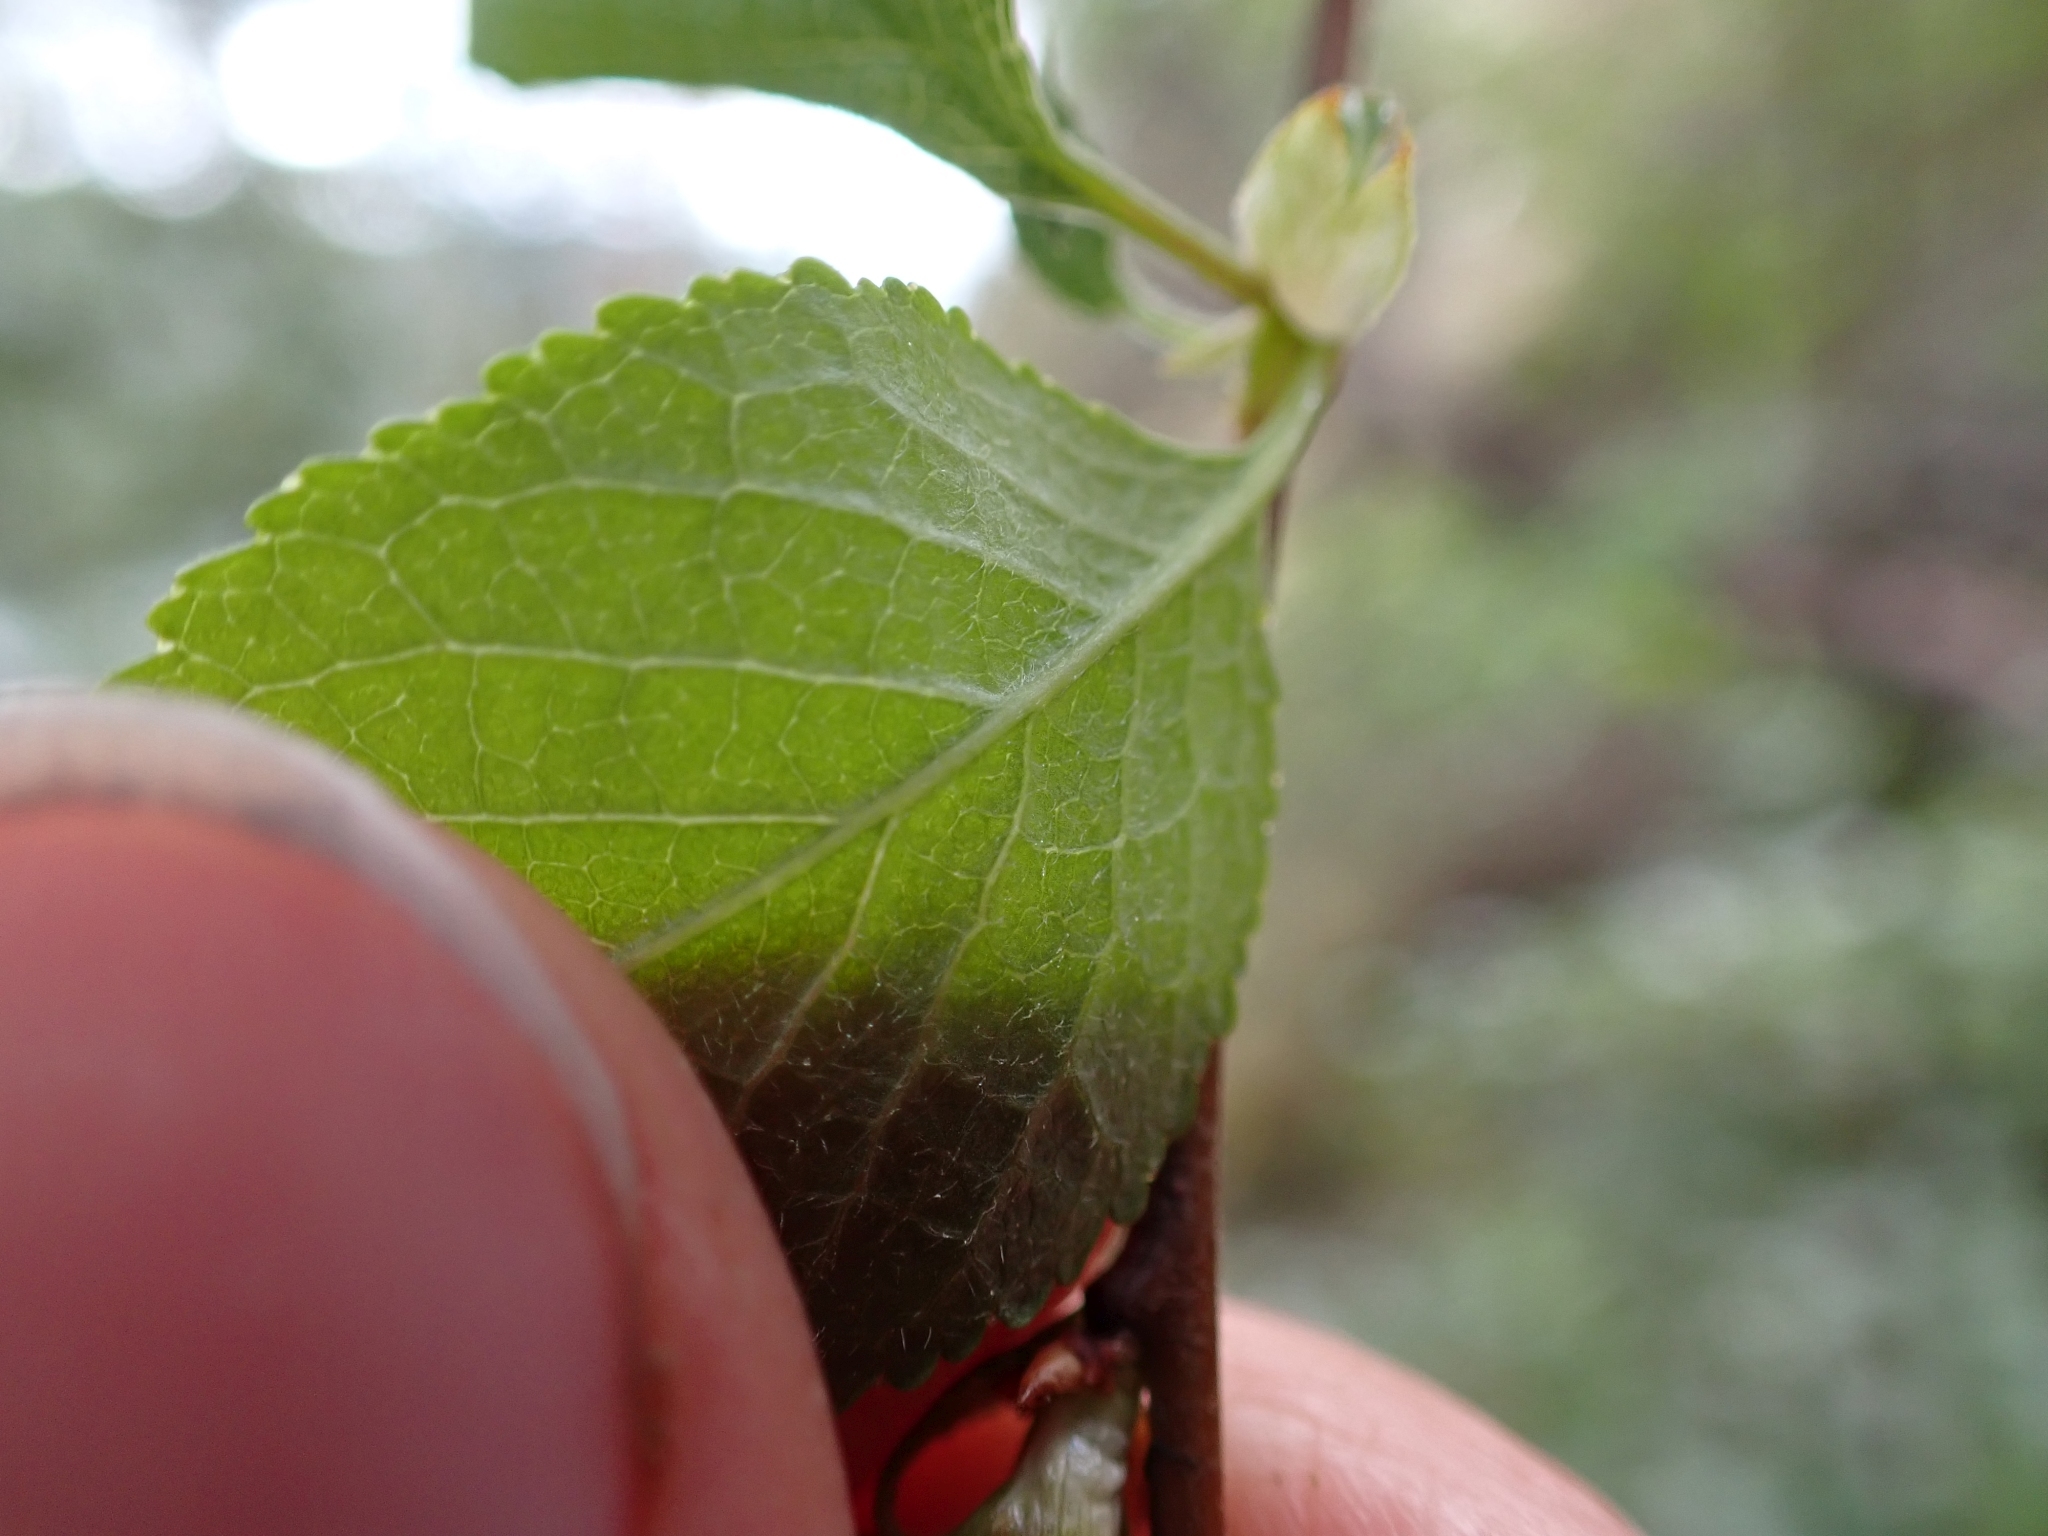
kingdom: Plantae
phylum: Tracheophyta
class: Magnoliopsida
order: Rosales
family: Rosaceae
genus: Prunus
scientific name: Prunus emarginata
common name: Bitter cherry
